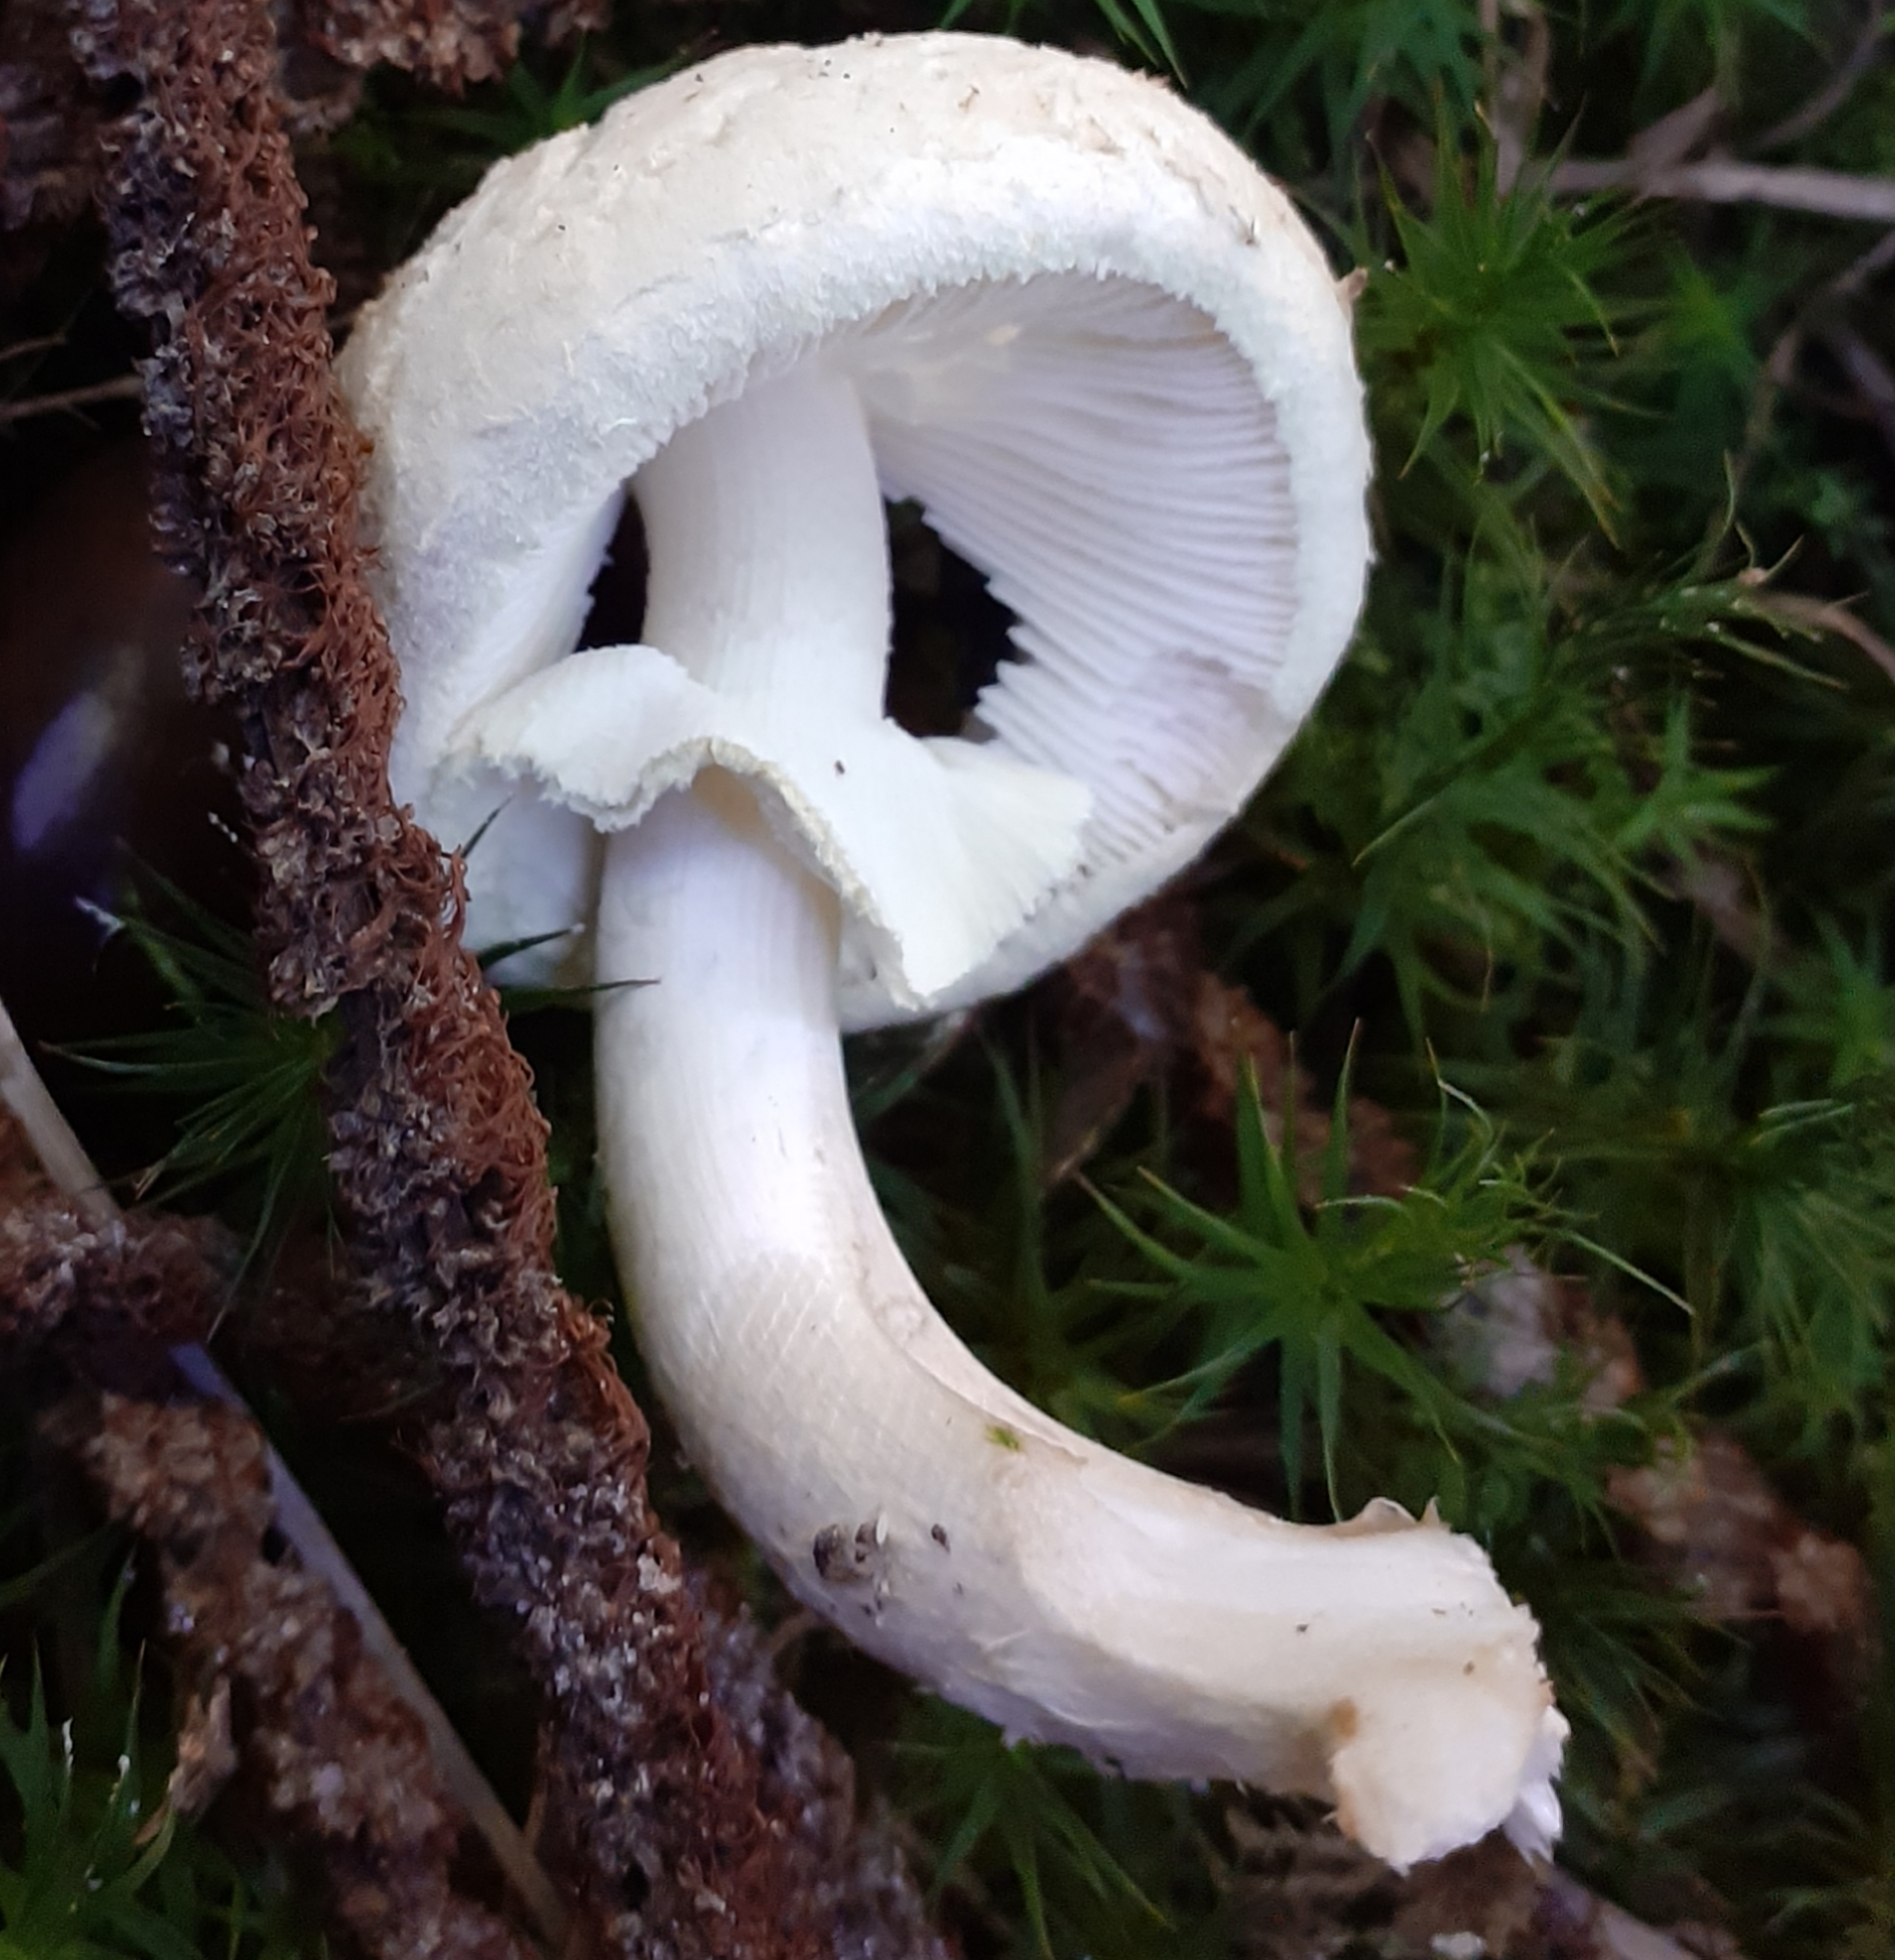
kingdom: Fungi
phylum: Basidiomycota
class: Agaricomycetes
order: Agaricales
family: Amanitaceae
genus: Amanita
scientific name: Amanita citrina
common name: False death-cap
